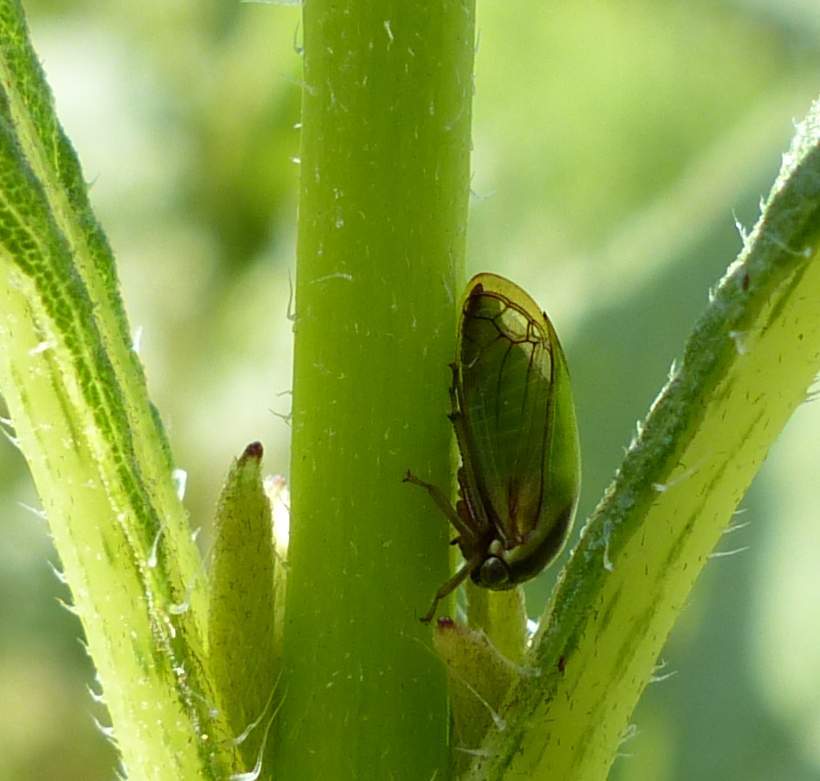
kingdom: Animalia
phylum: Arthropoda
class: Insecta
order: Hemiptera
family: Membracidae
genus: Acutalis
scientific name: Acutalis tartarea
